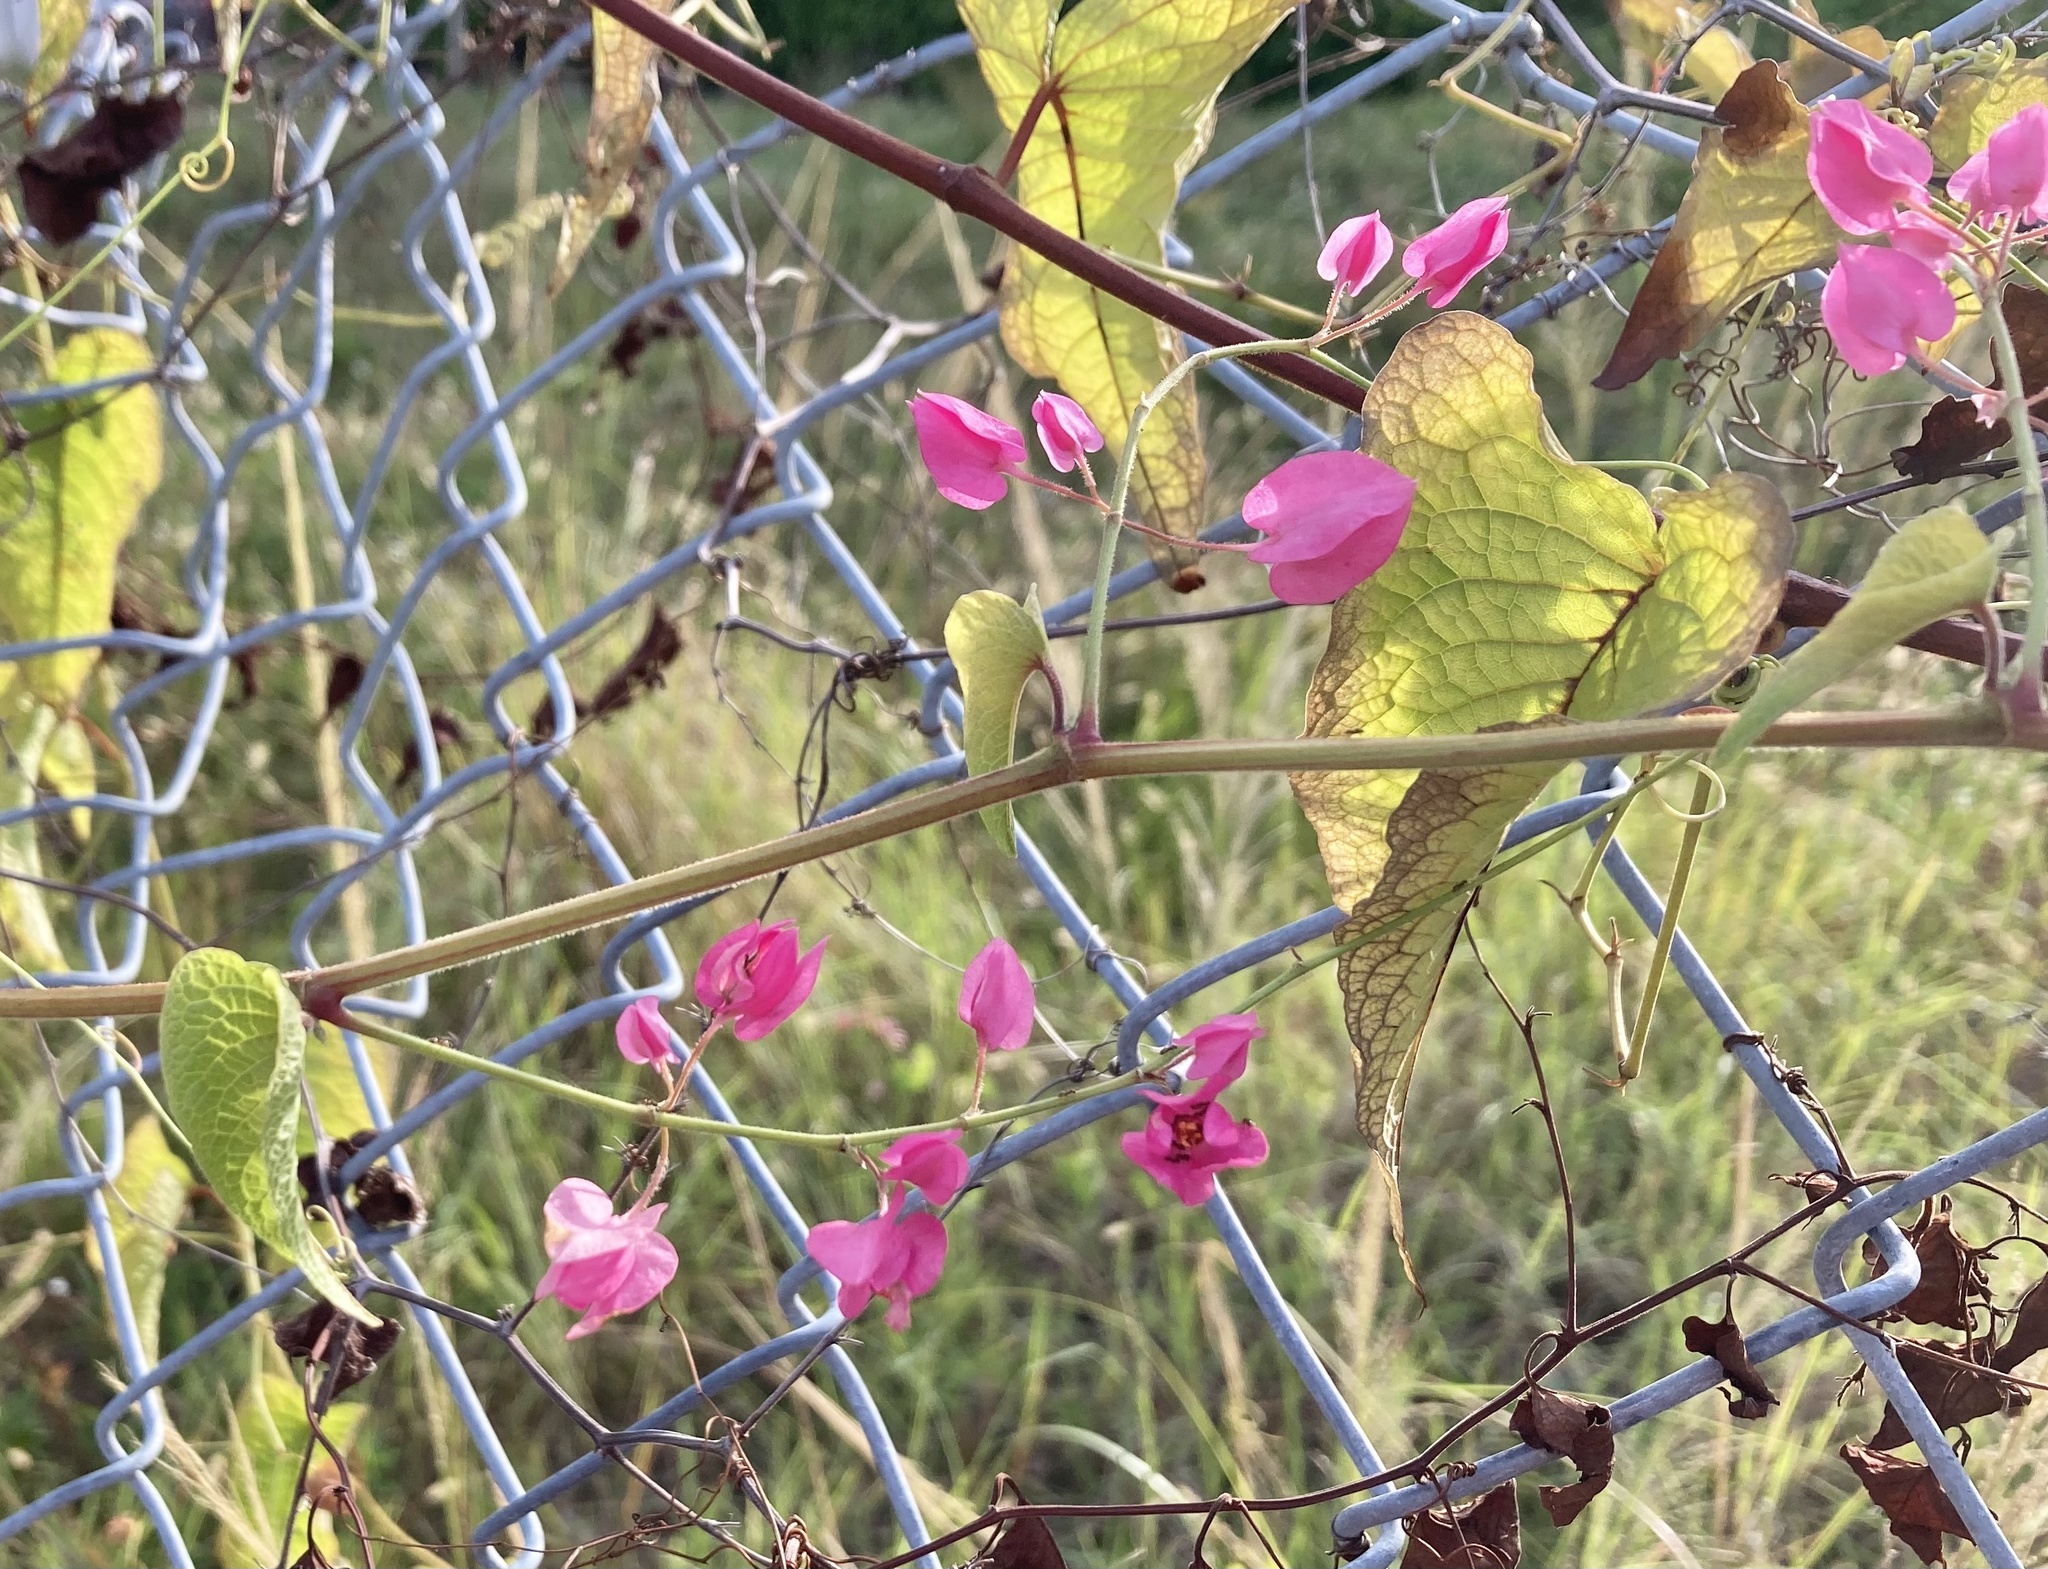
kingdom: Plantae
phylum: Tracheophyta
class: Magnoliopsida
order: Caryophyllales
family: Polygonaceae
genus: Antigonon
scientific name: Antigonon leptopus
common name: Coral vine
